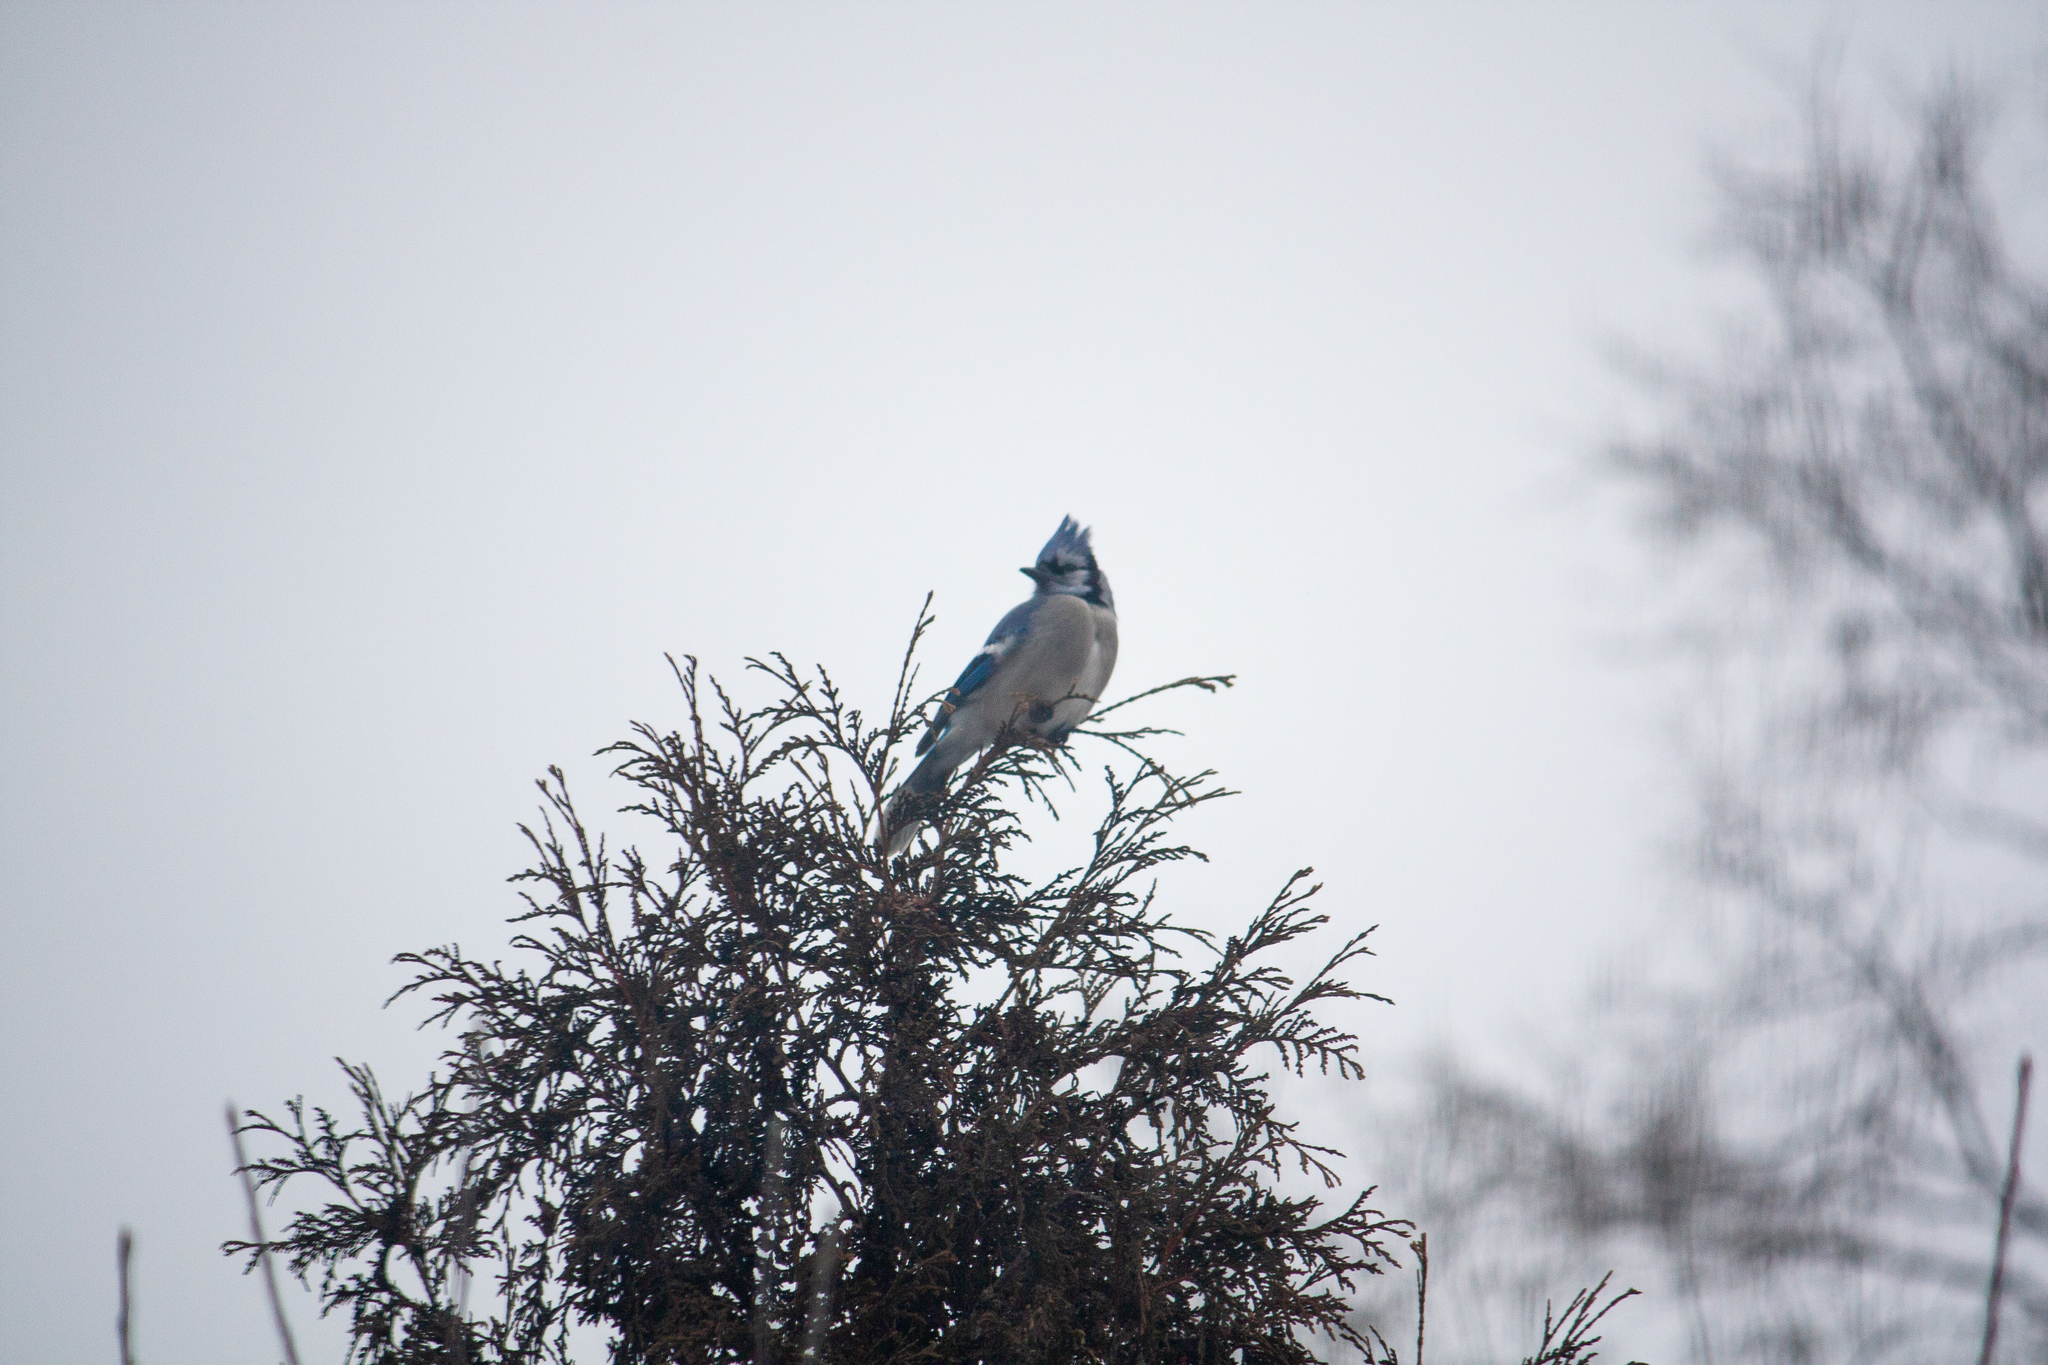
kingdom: Animalia
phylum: Chordata
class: Aves
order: Passeriformes
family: Corvidae
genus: Cyanocitta
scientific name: Cyanocitta cristata
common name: Blue jay
